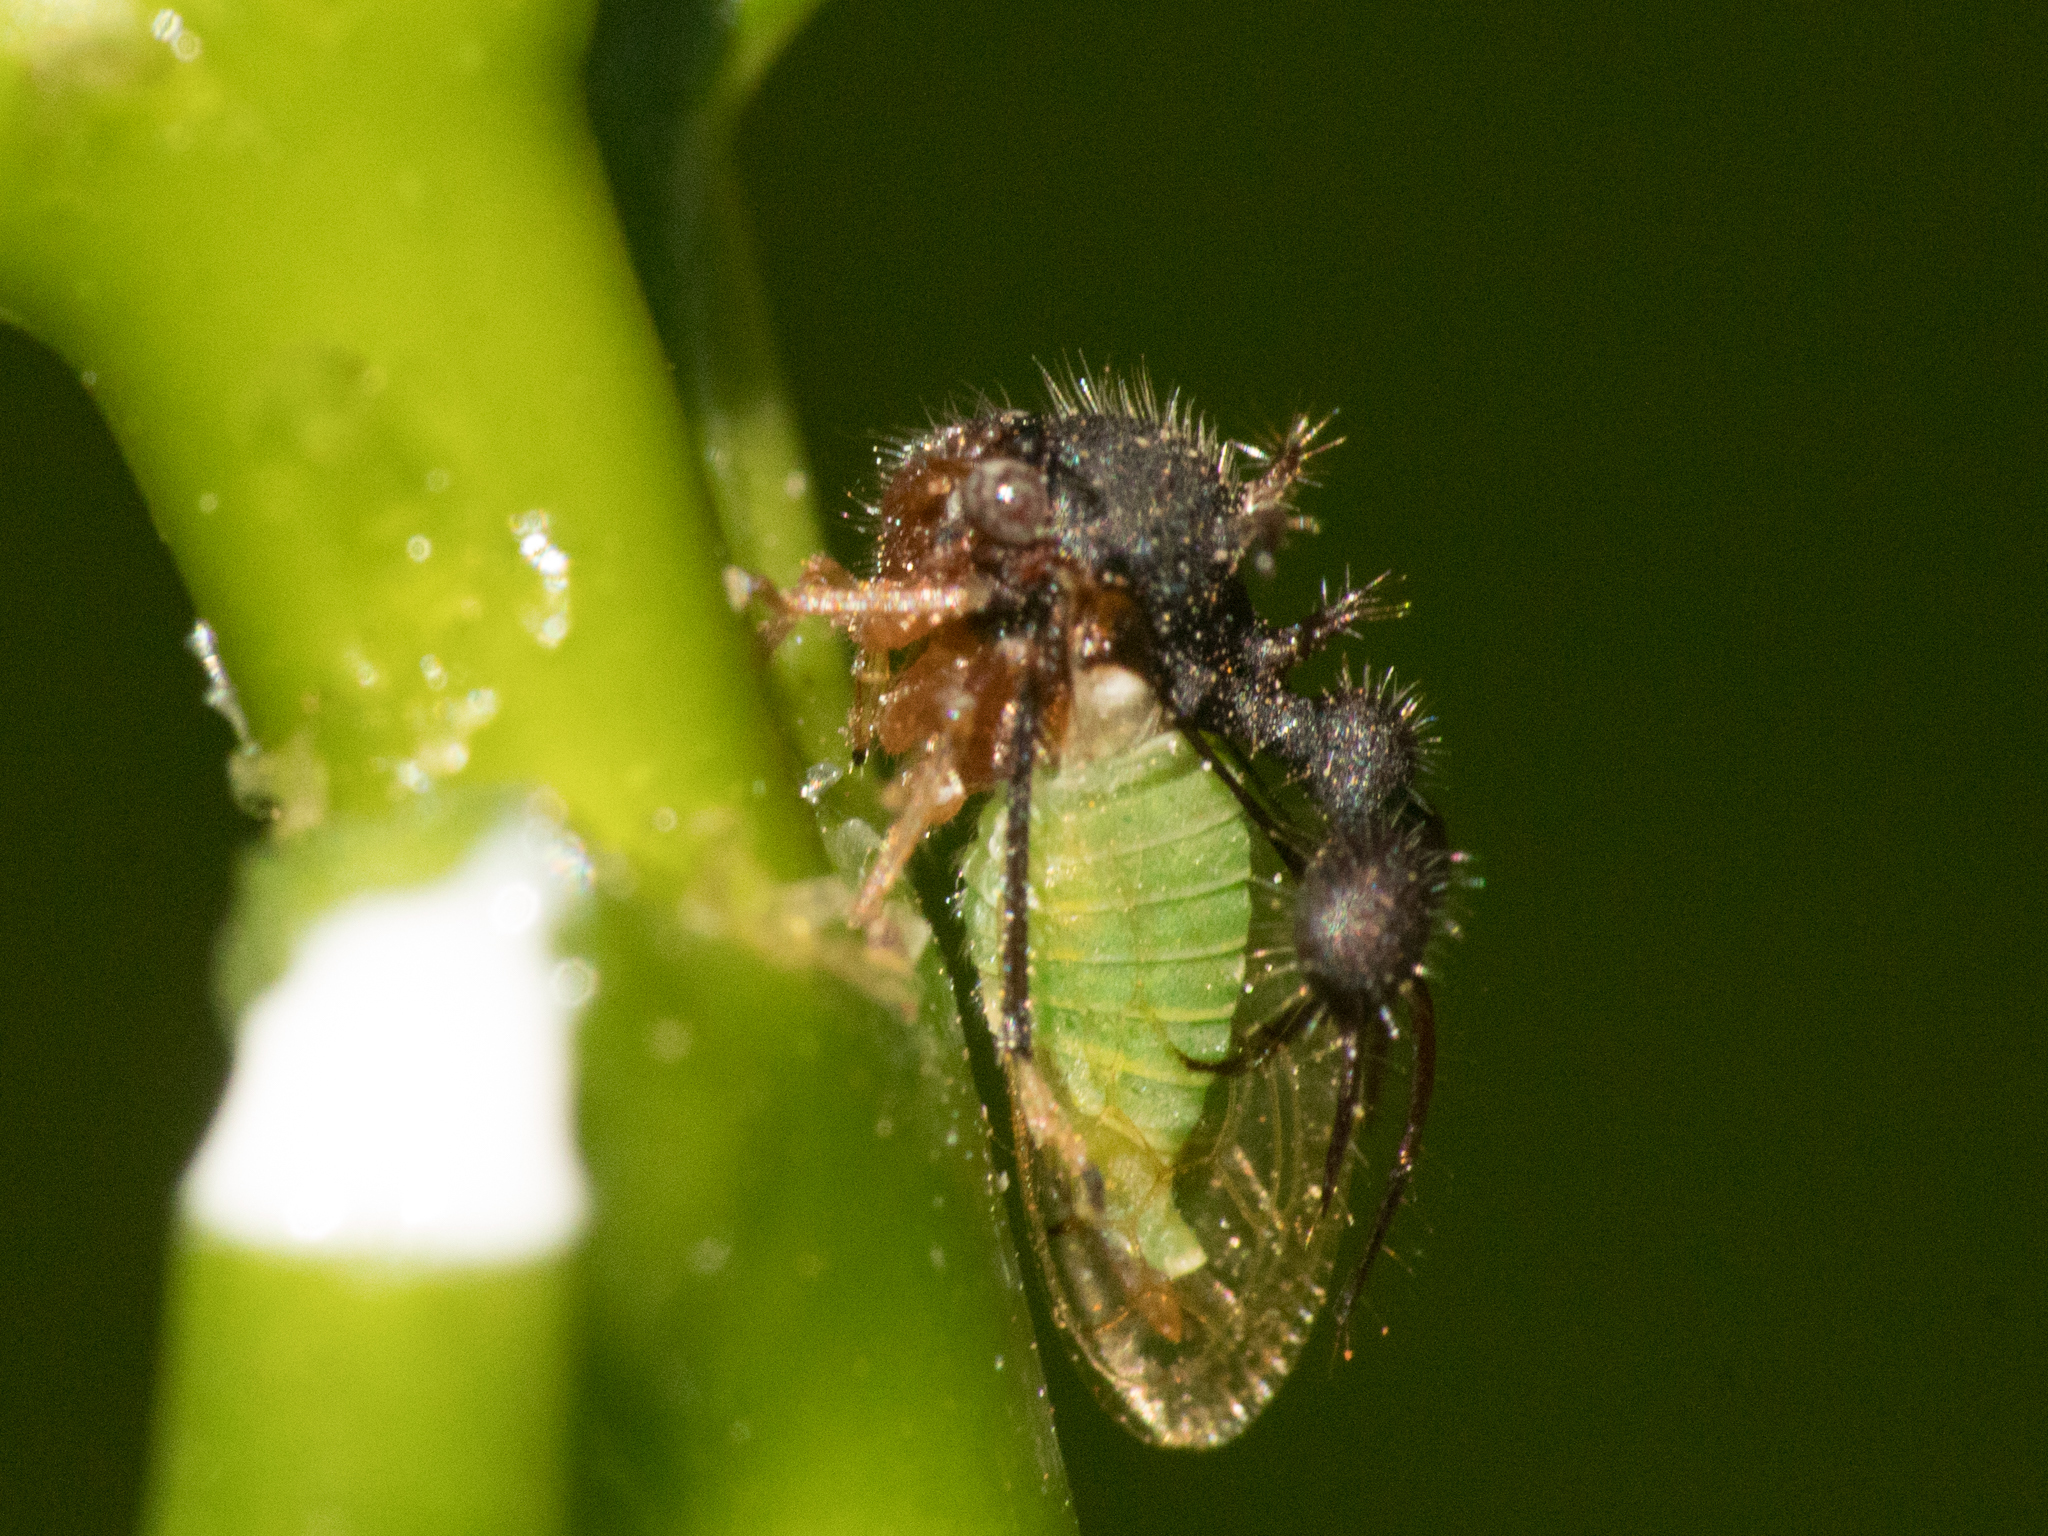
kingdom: Animalia
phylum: Arthropoda
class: Insecta
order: Hemiptera
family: Membracidae
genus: Cyphonia
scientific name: Cyphonia clavata
